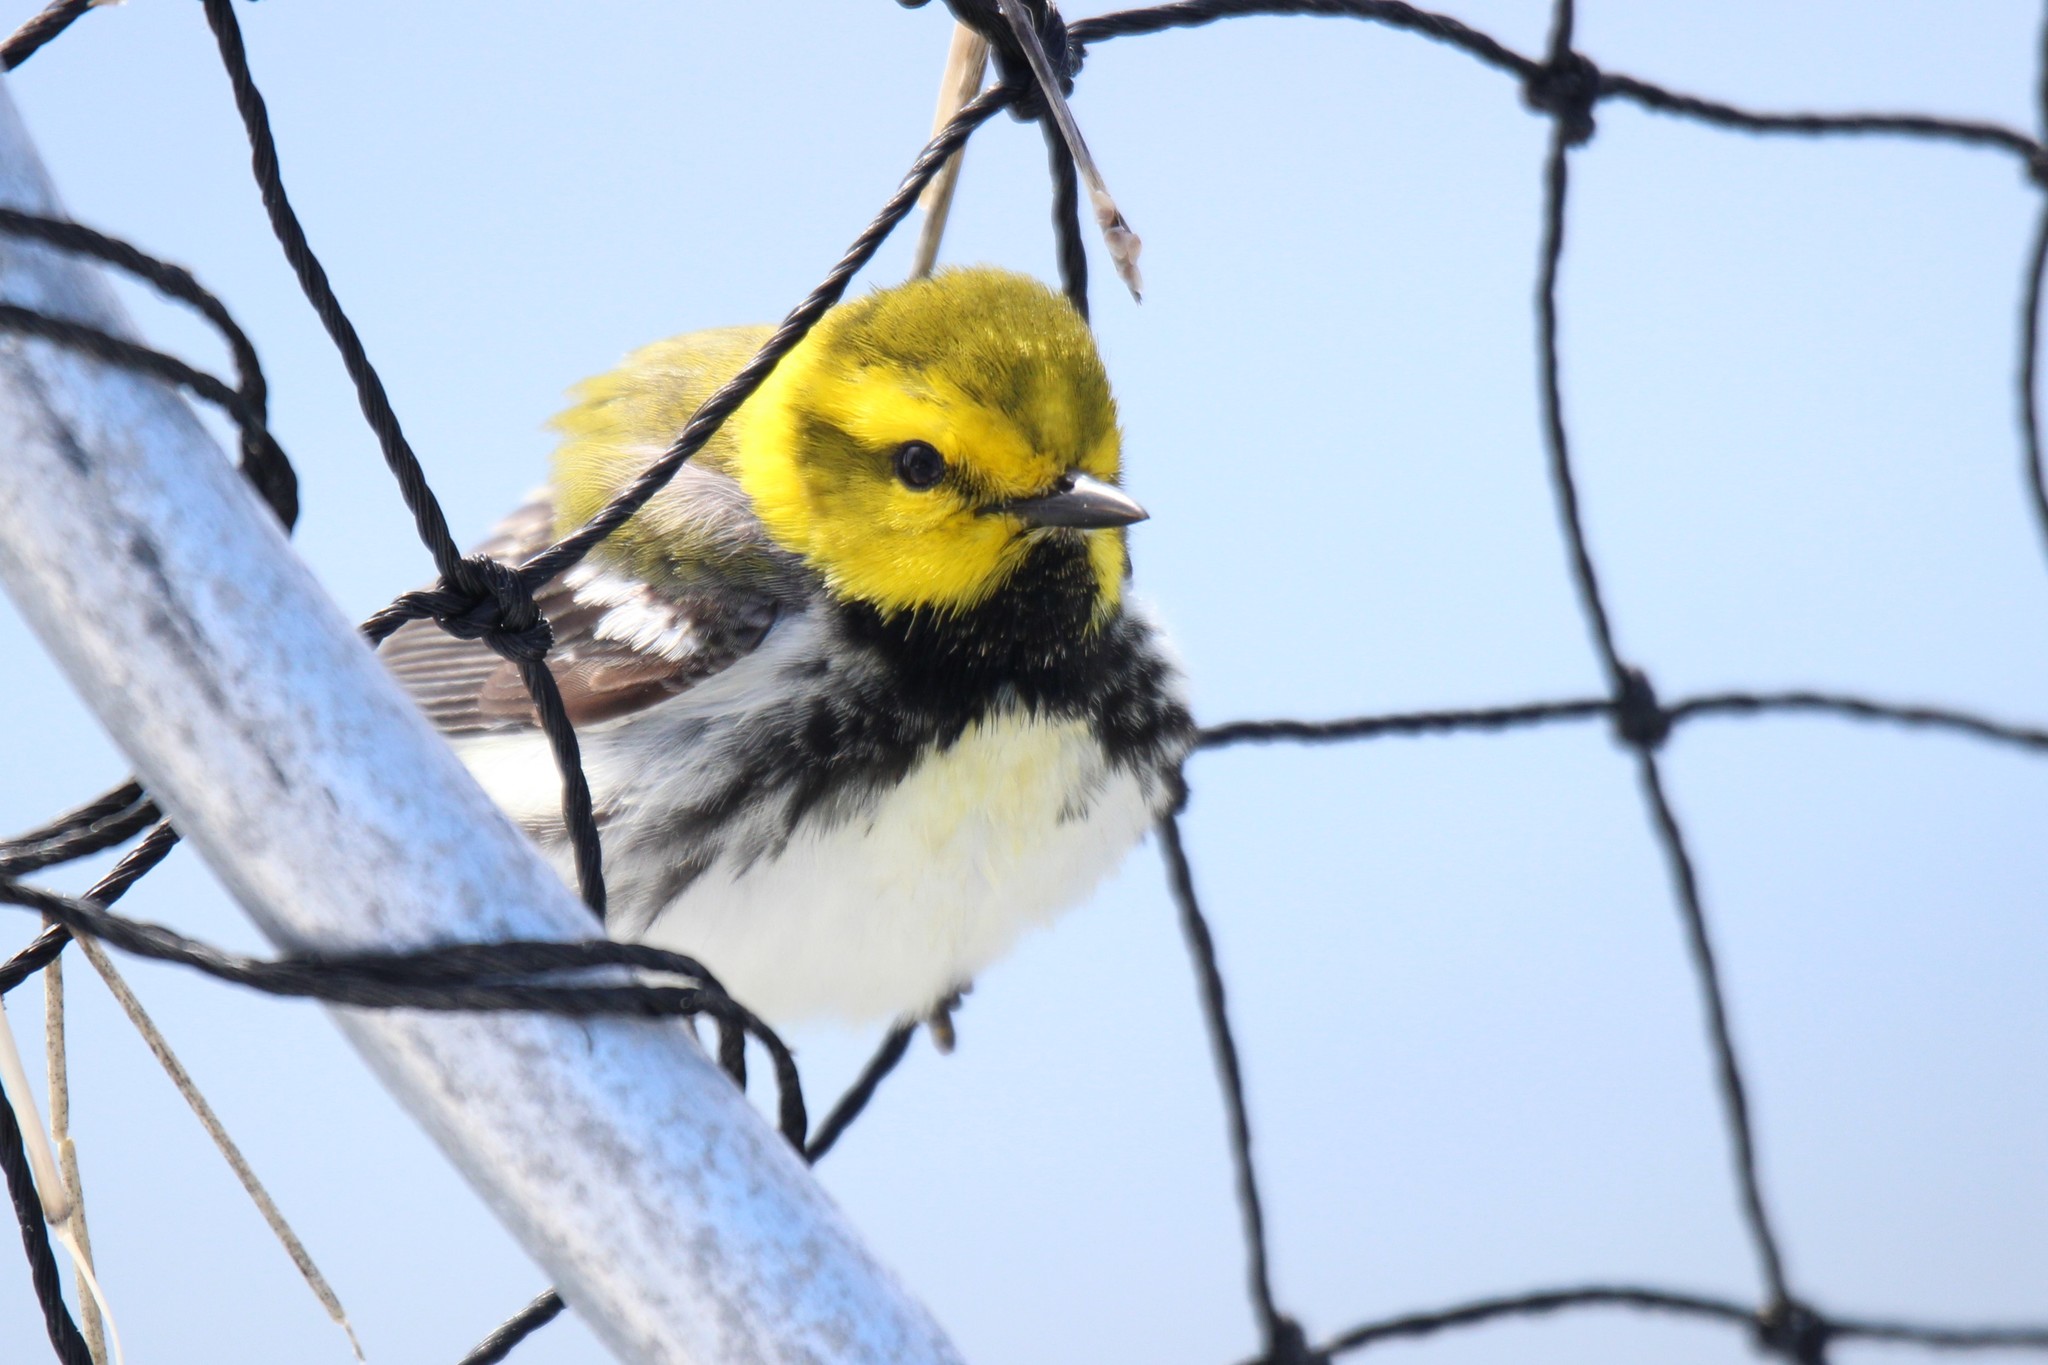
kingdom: Animalia
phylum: Chordata
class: Aves
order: Passeriformes
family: Parulidae
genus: Setophaga
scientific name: Setophaga virens
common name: Black-throated green warbler
